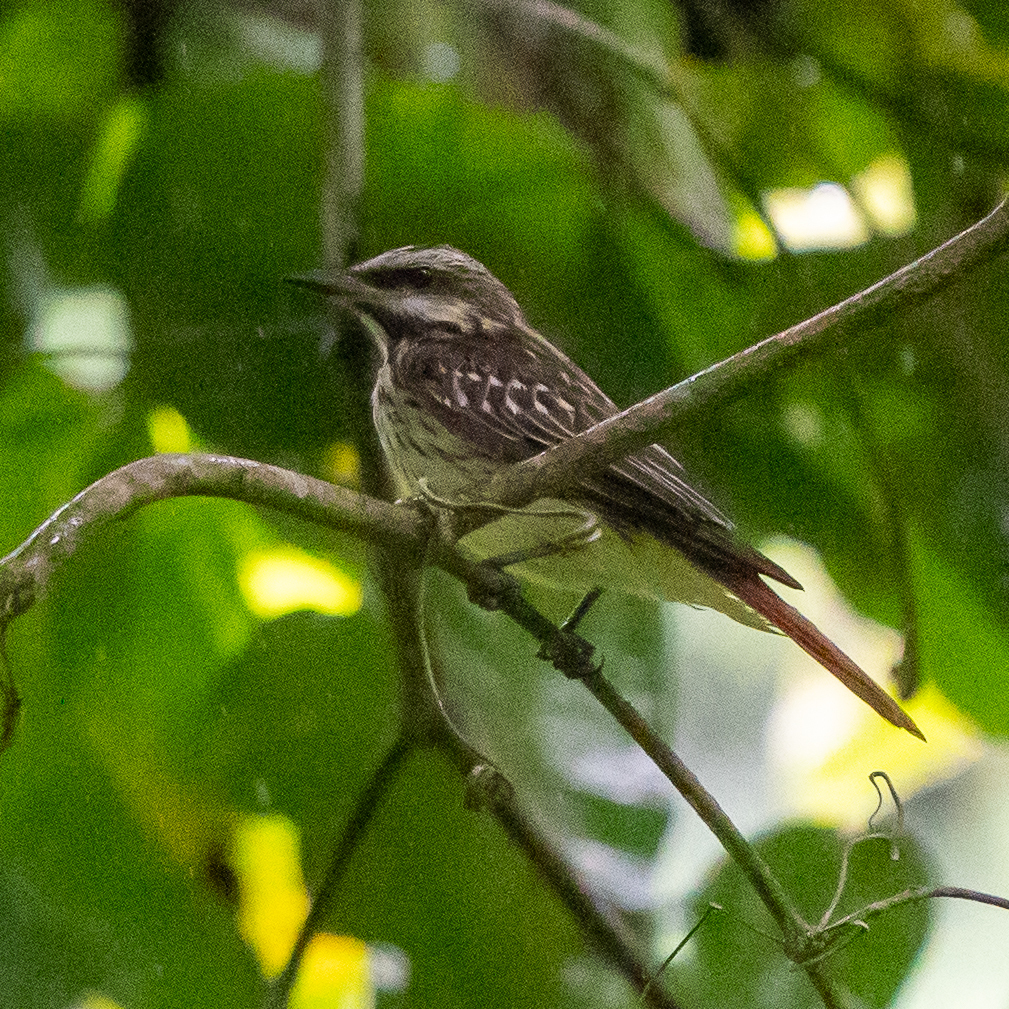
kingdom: Animalia
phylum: Chordata
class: Aves
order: Passeriformes
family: Tyrannidae
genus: Myiodynastes
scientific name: Myiodynastes luteiventris
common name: Sulphur-bellied flycatcher
